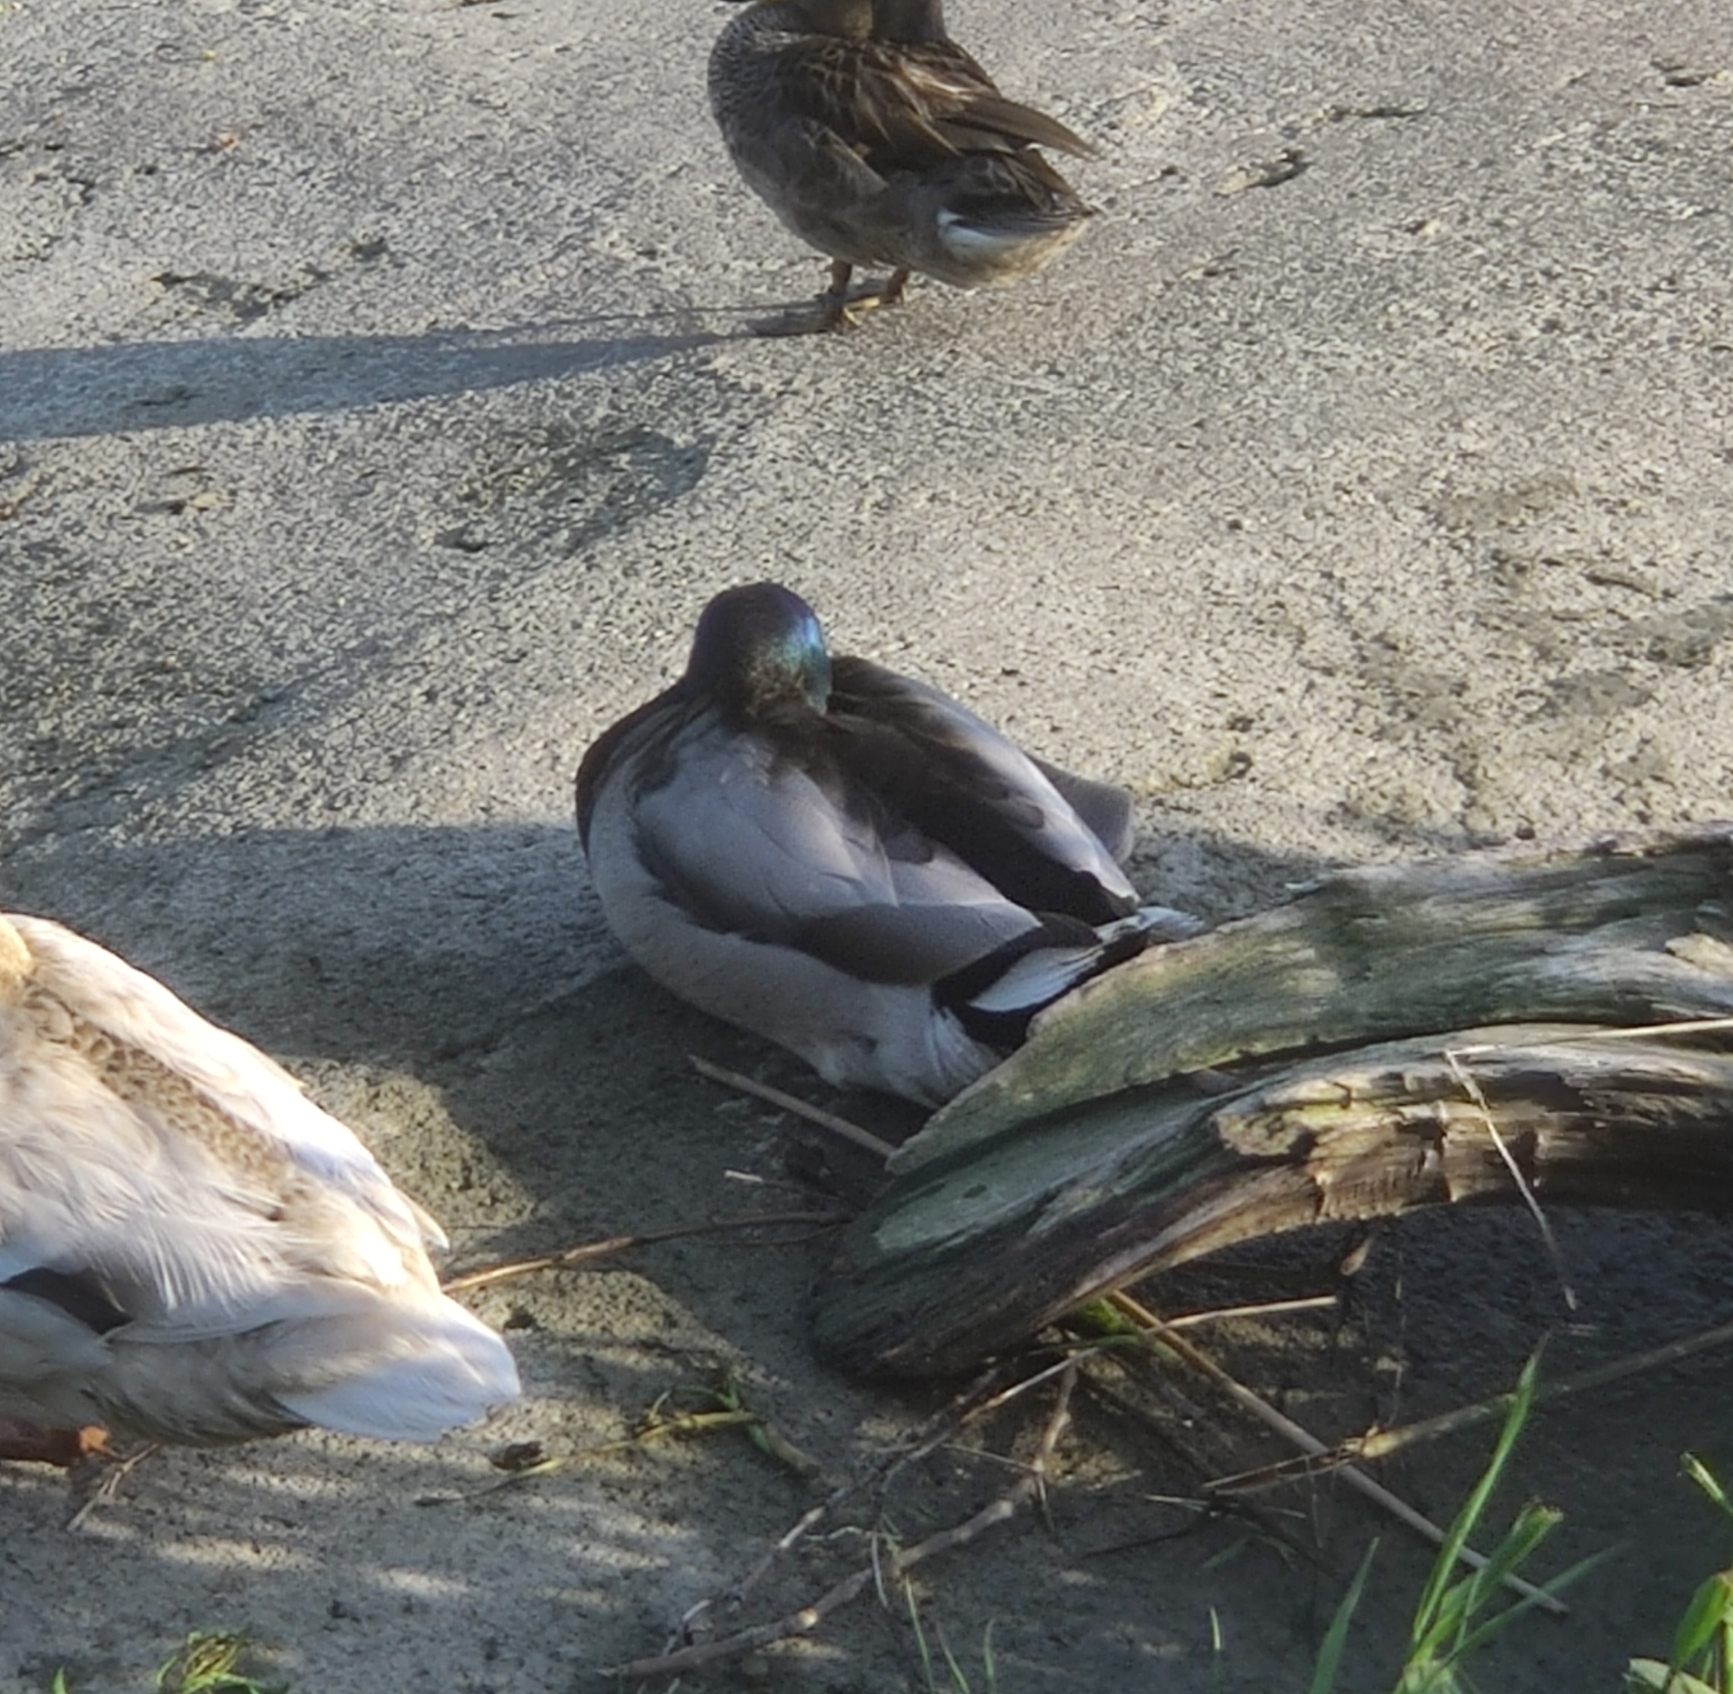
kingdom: Animalia
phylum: Chordata
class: Aves
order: Anseriformes
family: Anatidae
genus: Anas
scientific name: Anas platyrhynchos
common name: Mallard
